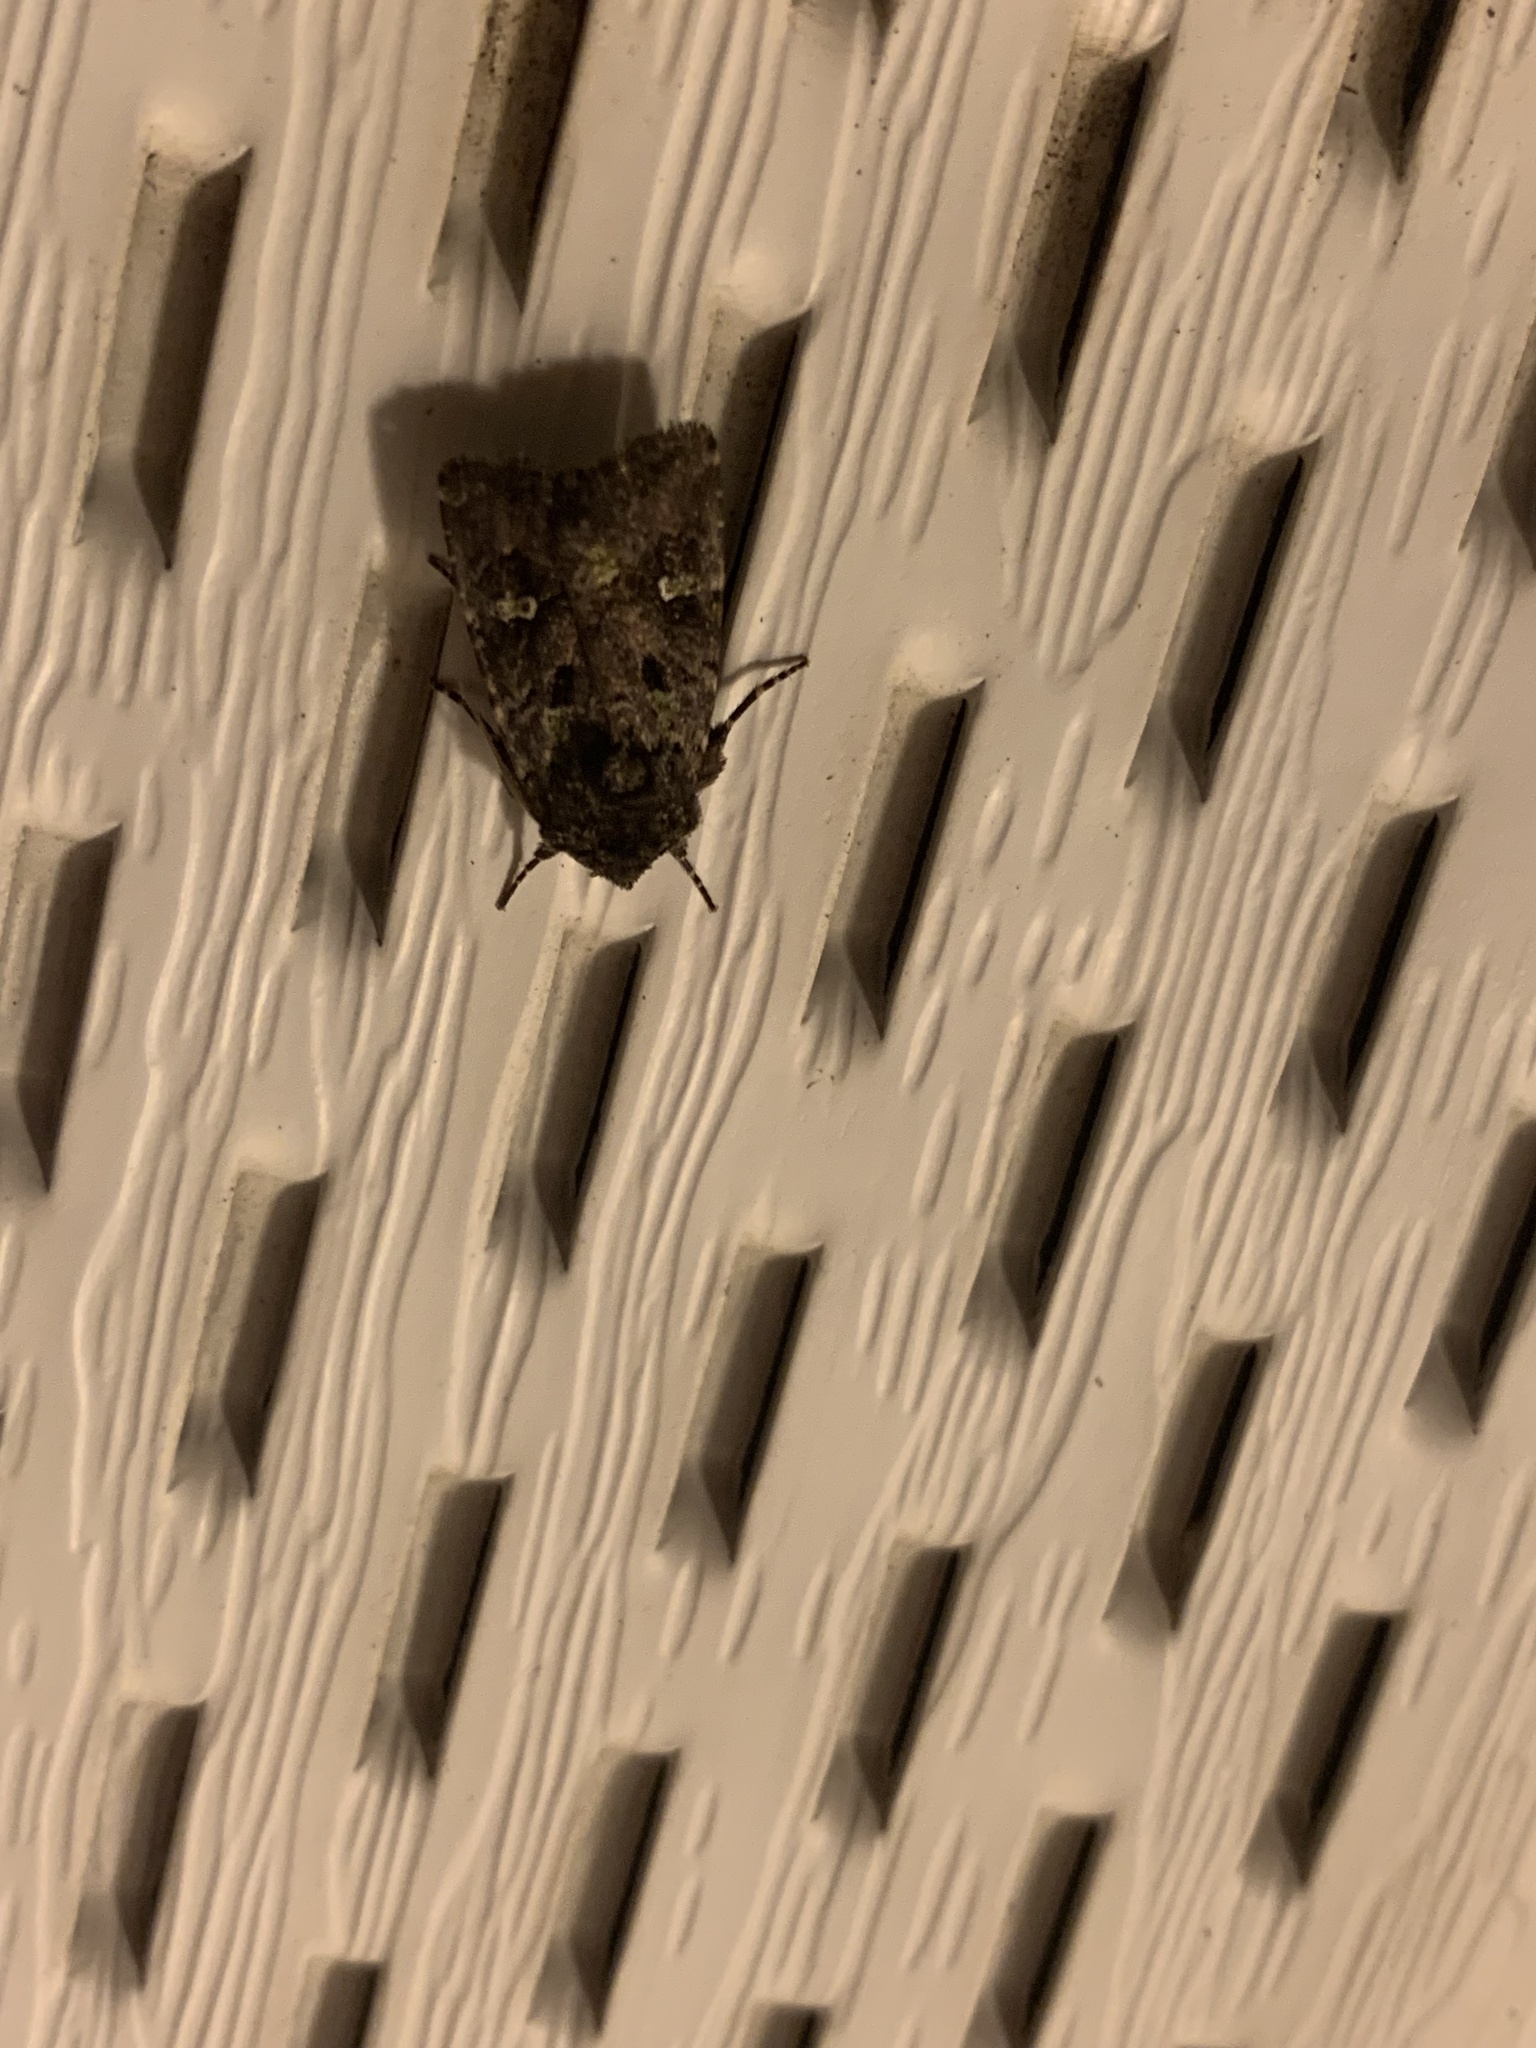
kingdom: Animalia
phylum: Arthropoda
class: Insecta
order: Lepidoptera
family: Noctuidae
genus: Lacinipolia
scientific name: Lacinipolia renigera
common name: Kidney-spotted minor
